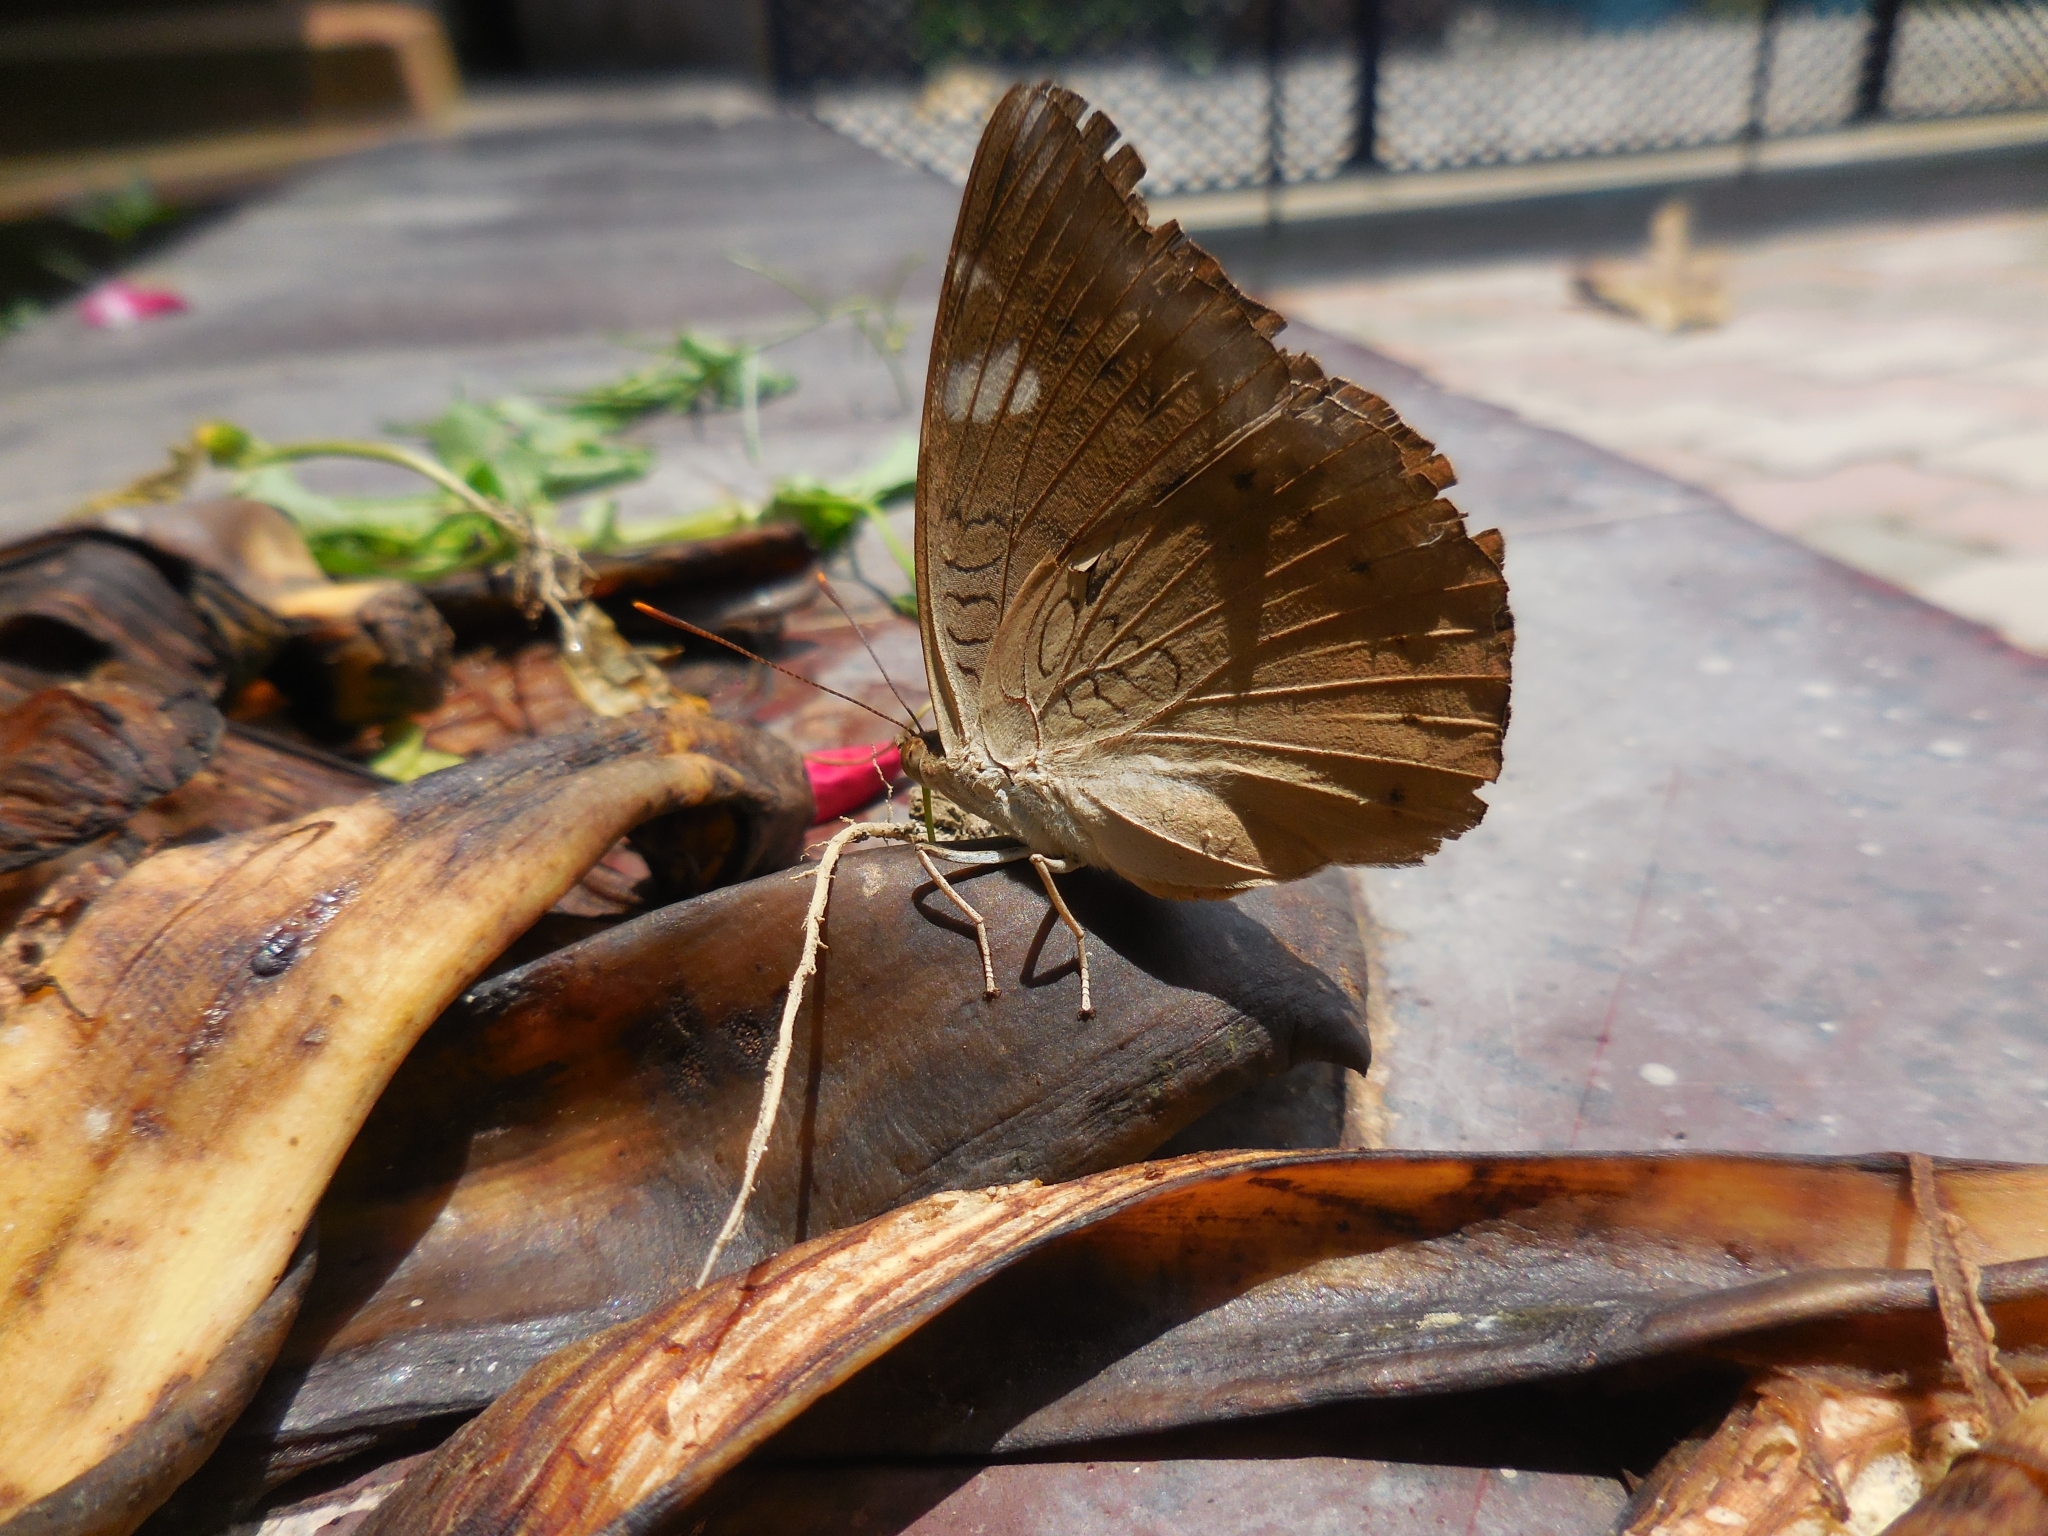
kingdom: Animalia
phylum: Arthropoda
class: Insecta
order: Lepidoptera
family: Nymphalidae
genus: Euthalia
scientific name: Euthalia aconthea
